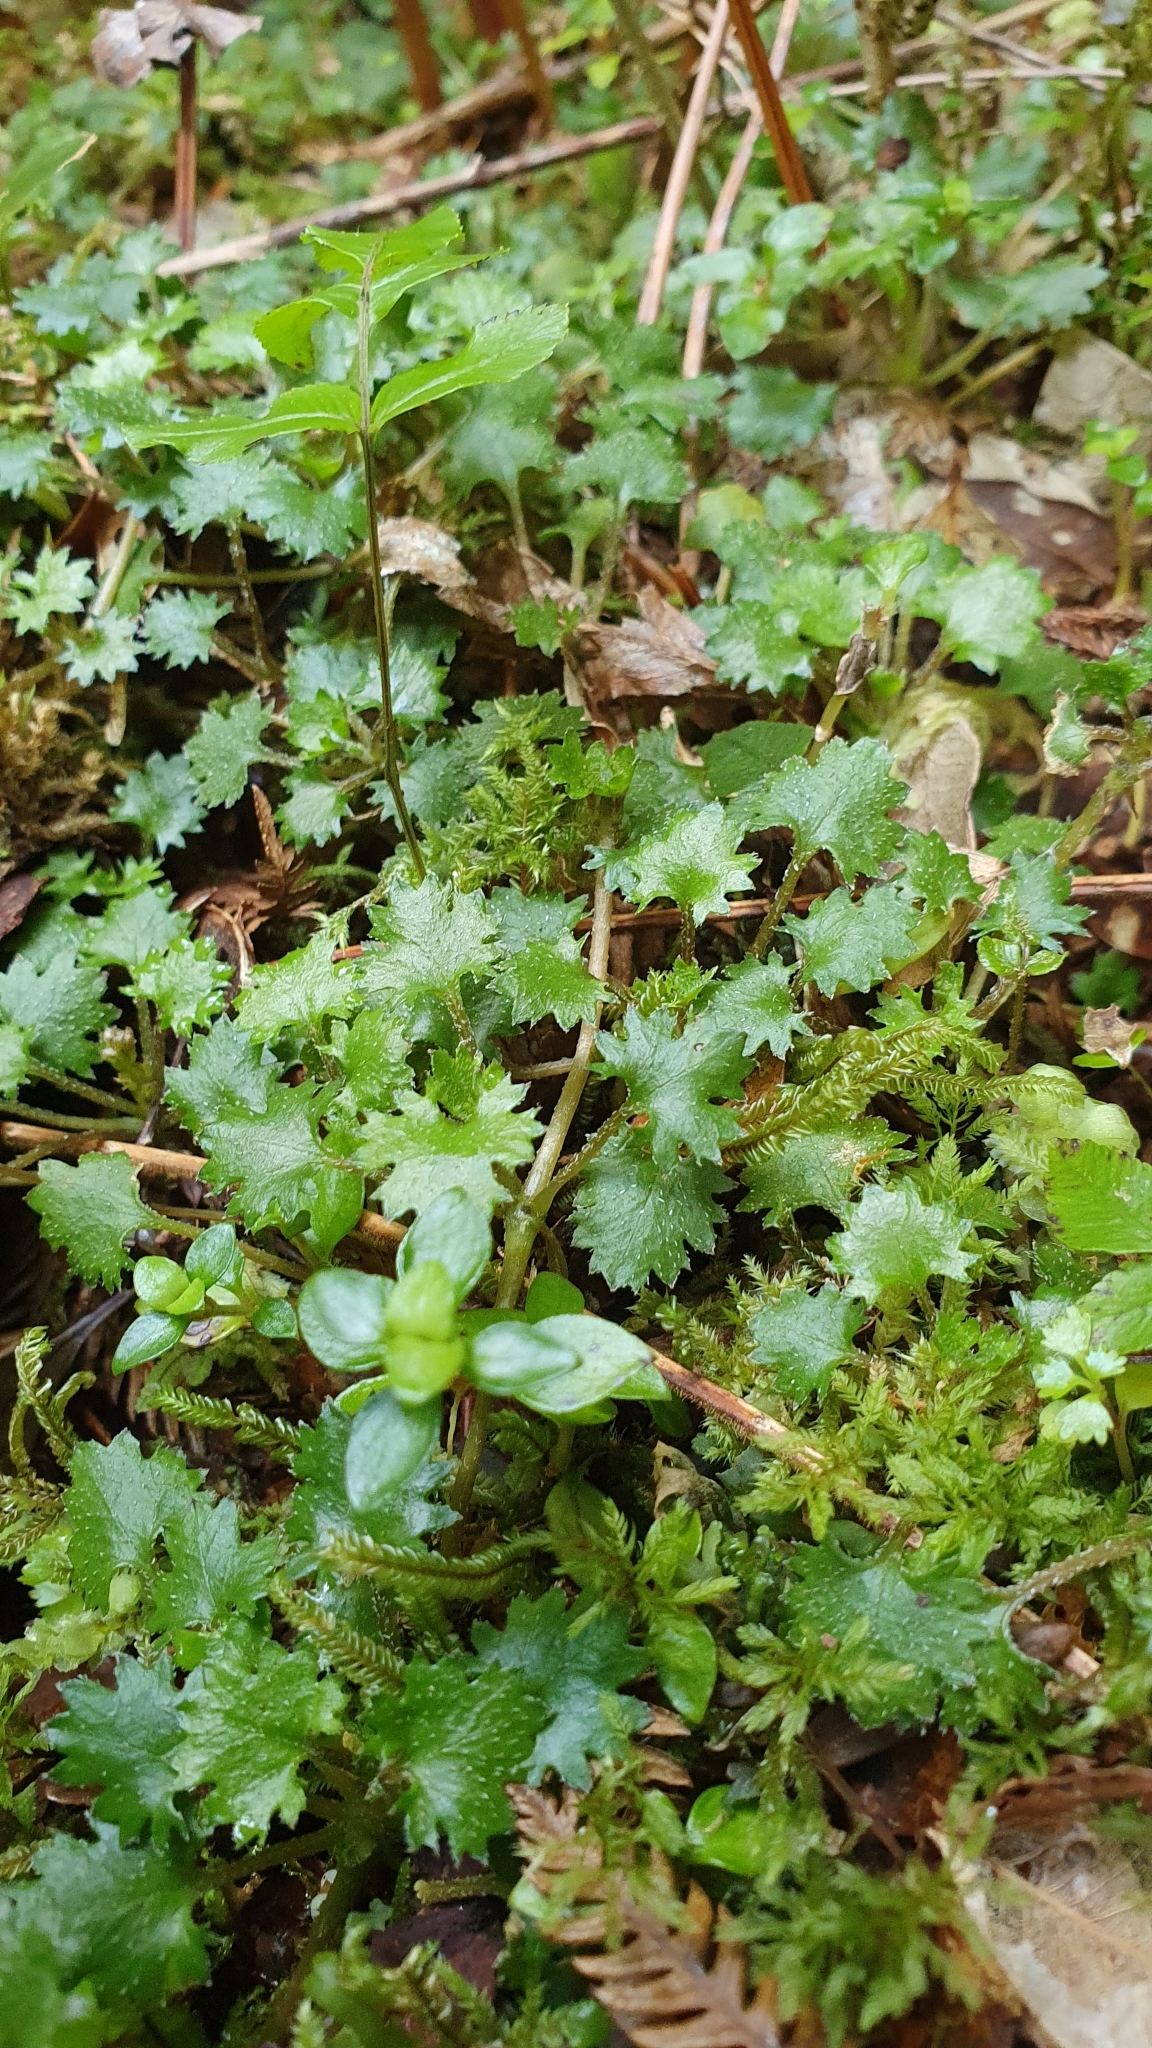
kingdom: Plantae
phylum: Tracheophyta
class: Magnoliopsida
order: Gunnerales
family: Gunneraceae
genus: Gunnera
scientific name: Gunnera monoica
